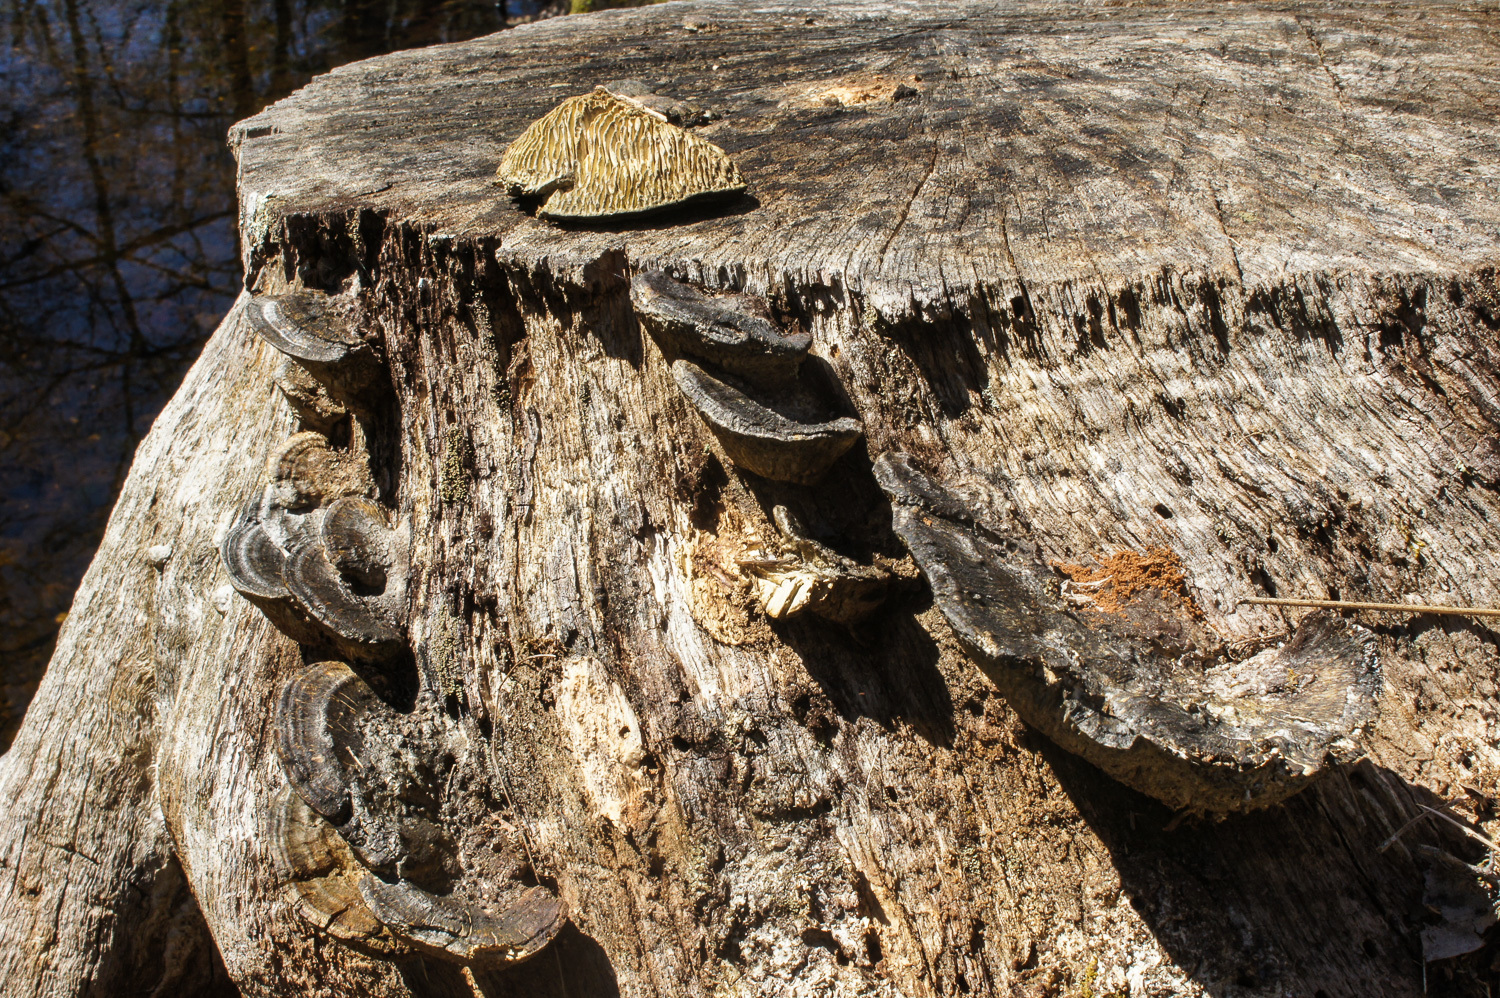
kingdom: Fungi
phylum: Basidiomycota
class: Agaricomycetes
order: Polyporales
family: Fomitopsidaceae
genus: Fomitopsis
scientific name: Fomitopsis
